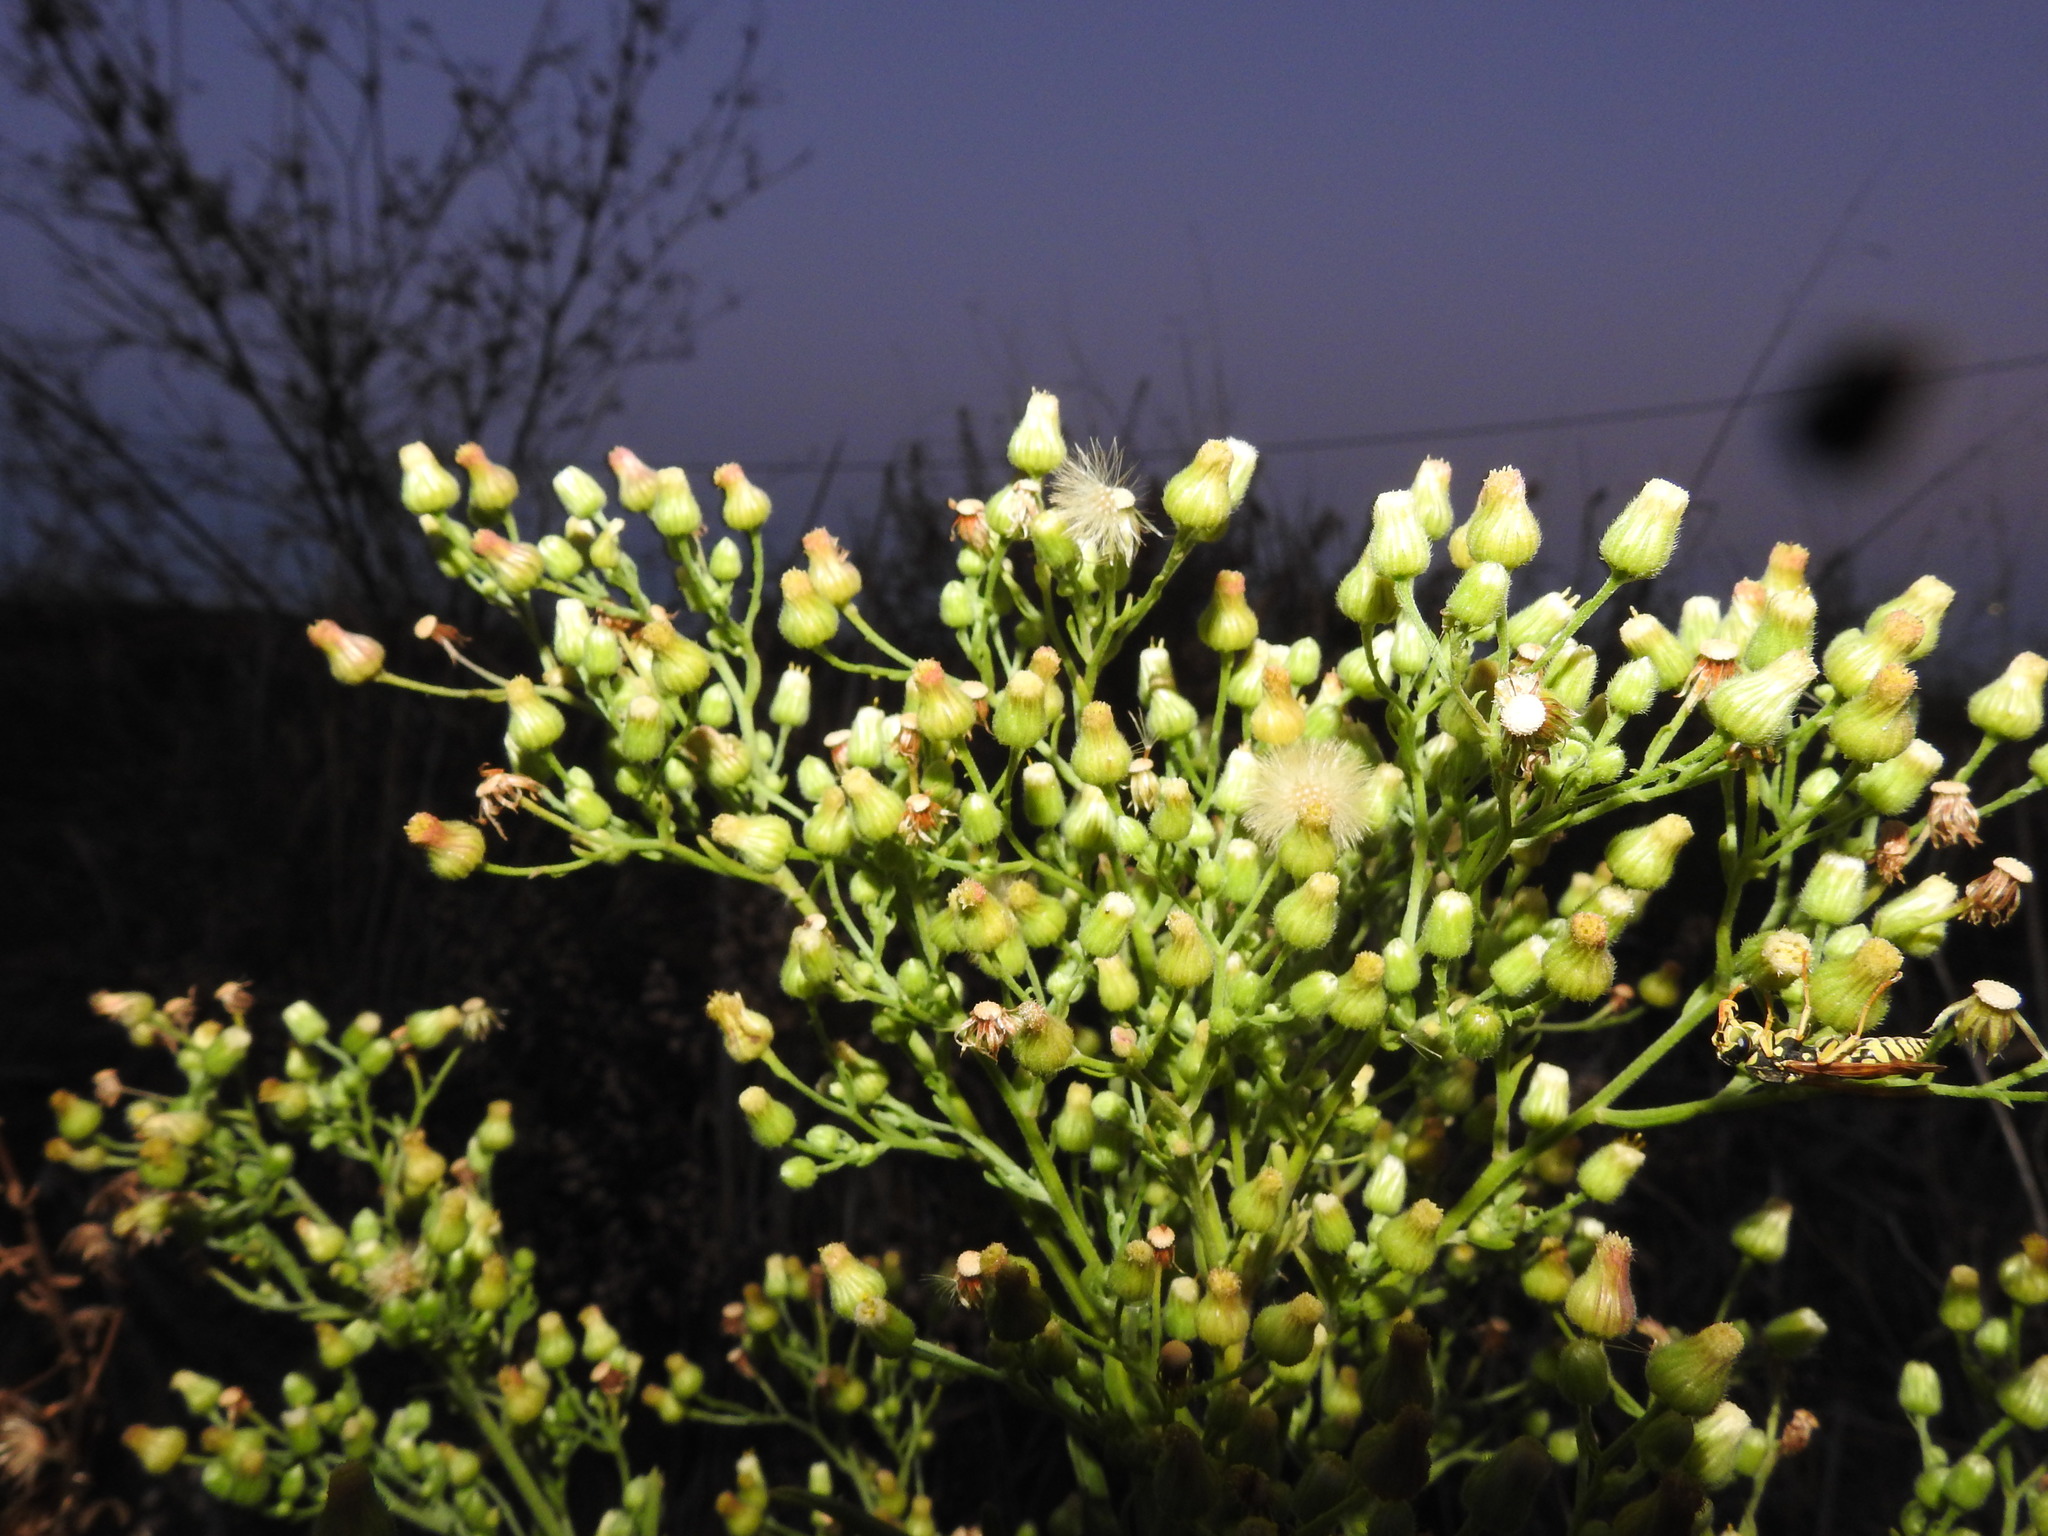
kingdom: Plantae
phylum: Tracheophyta
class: Magnoliopsida
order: Asterales
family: Asteraceae
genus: Erigeron
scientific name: Erigeron sumatrensis
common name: Daisy
